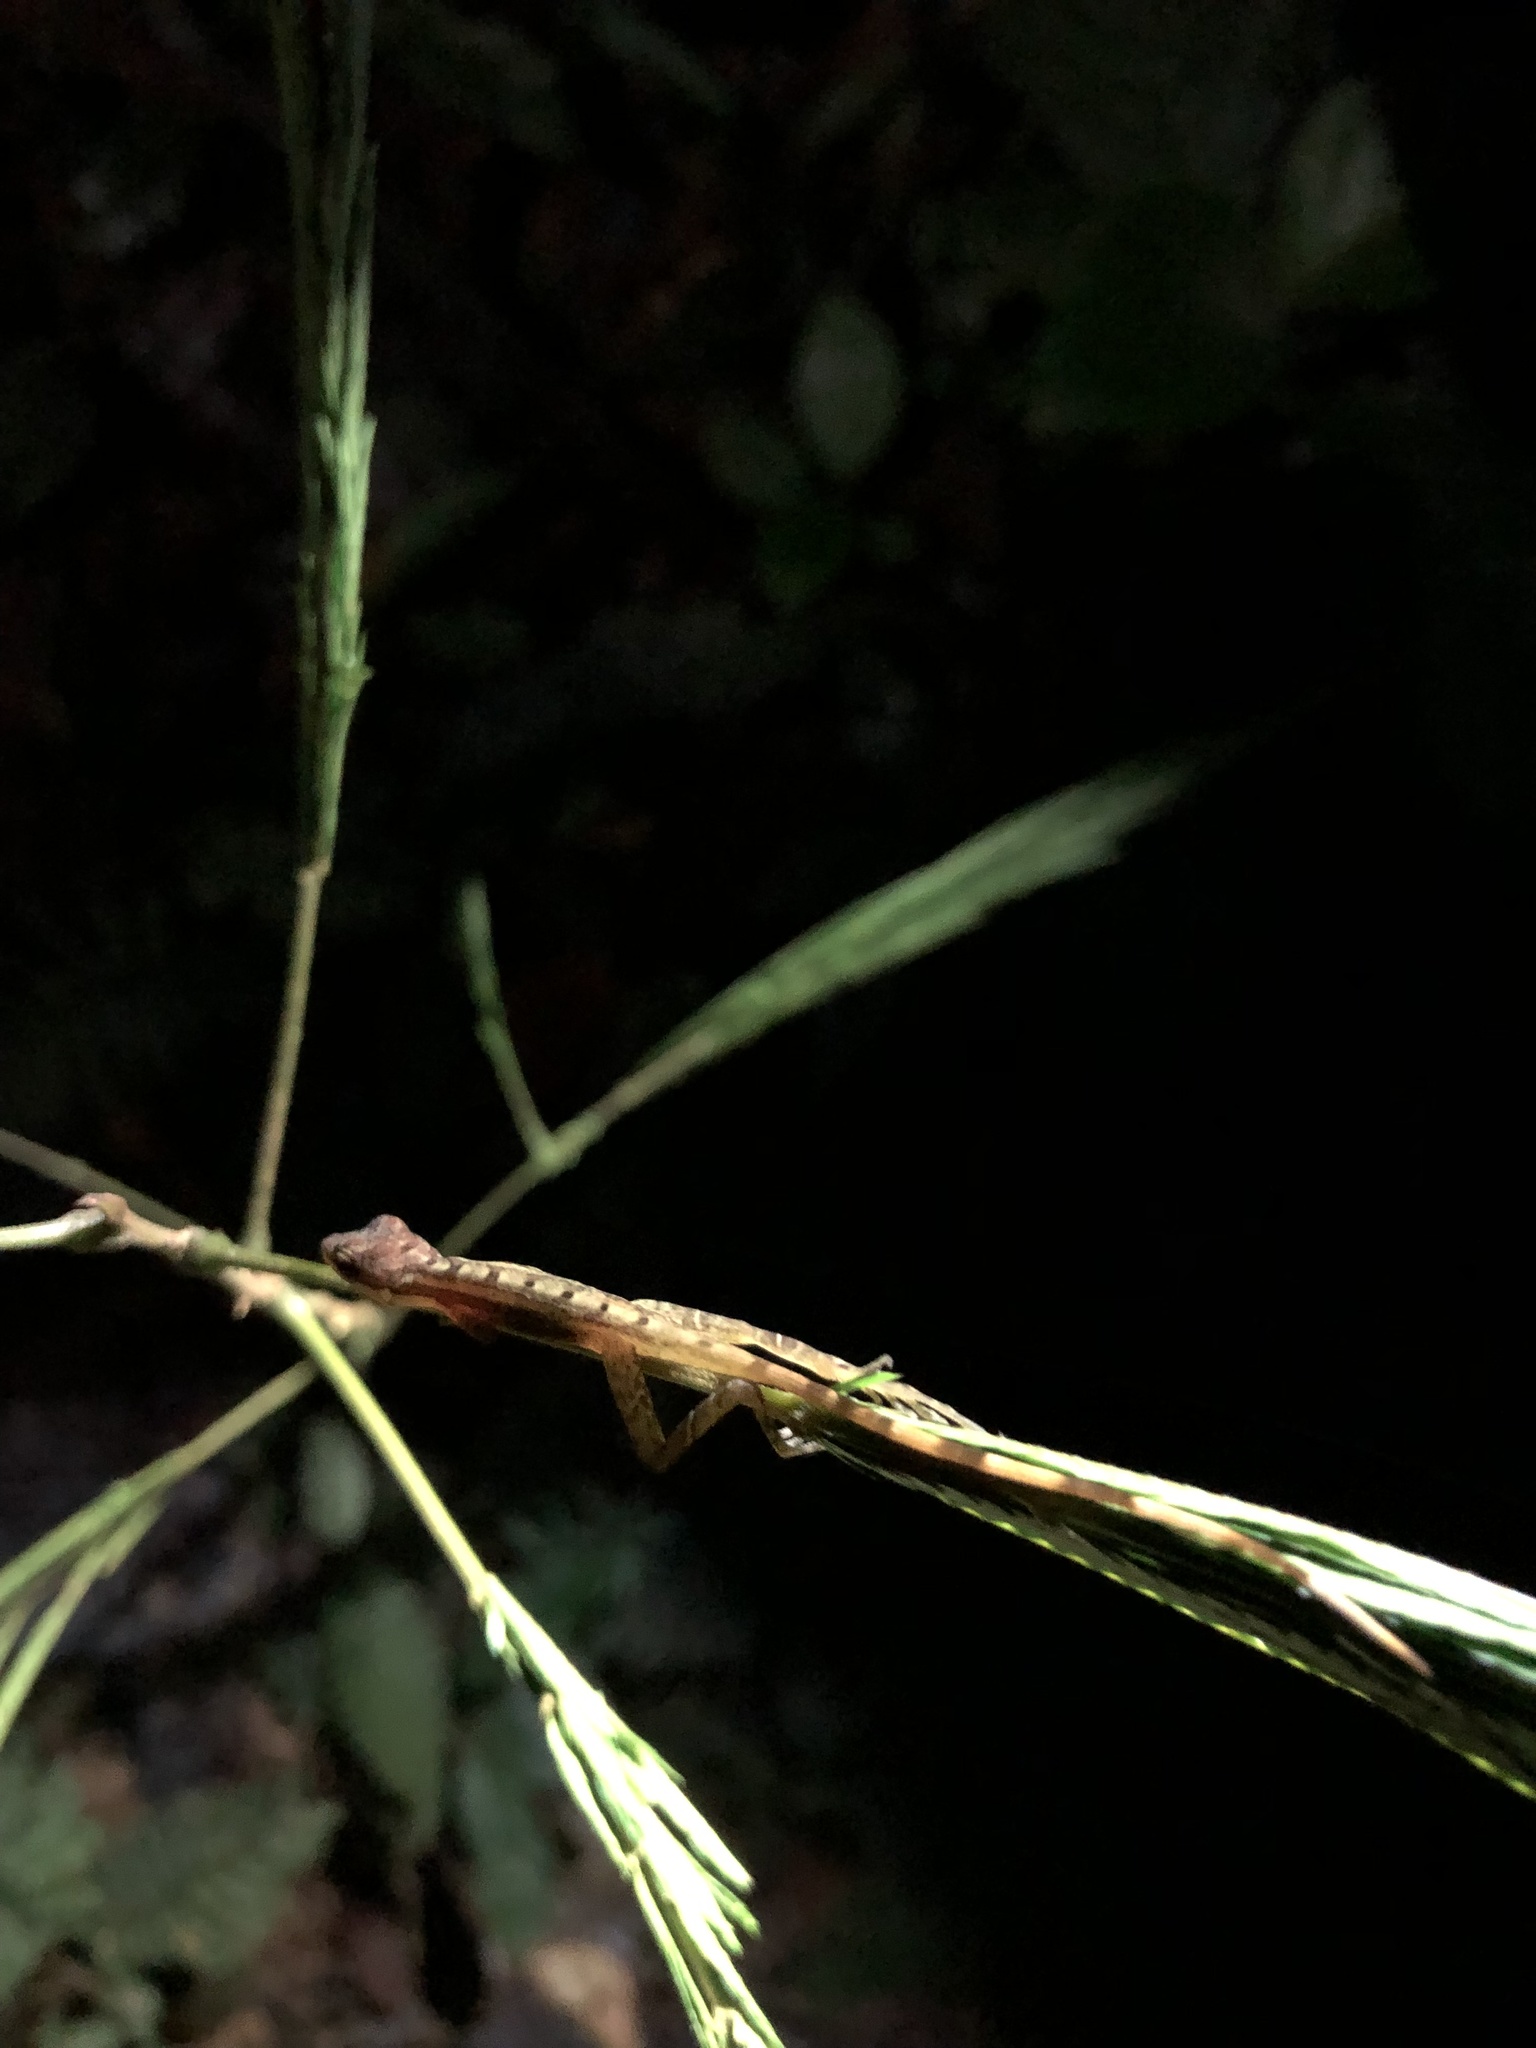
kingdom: Animalia
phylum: Chordata
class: Squamata
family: Dactyloidae
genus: Anolis
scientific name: Anolis limifrons
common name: Border anole
